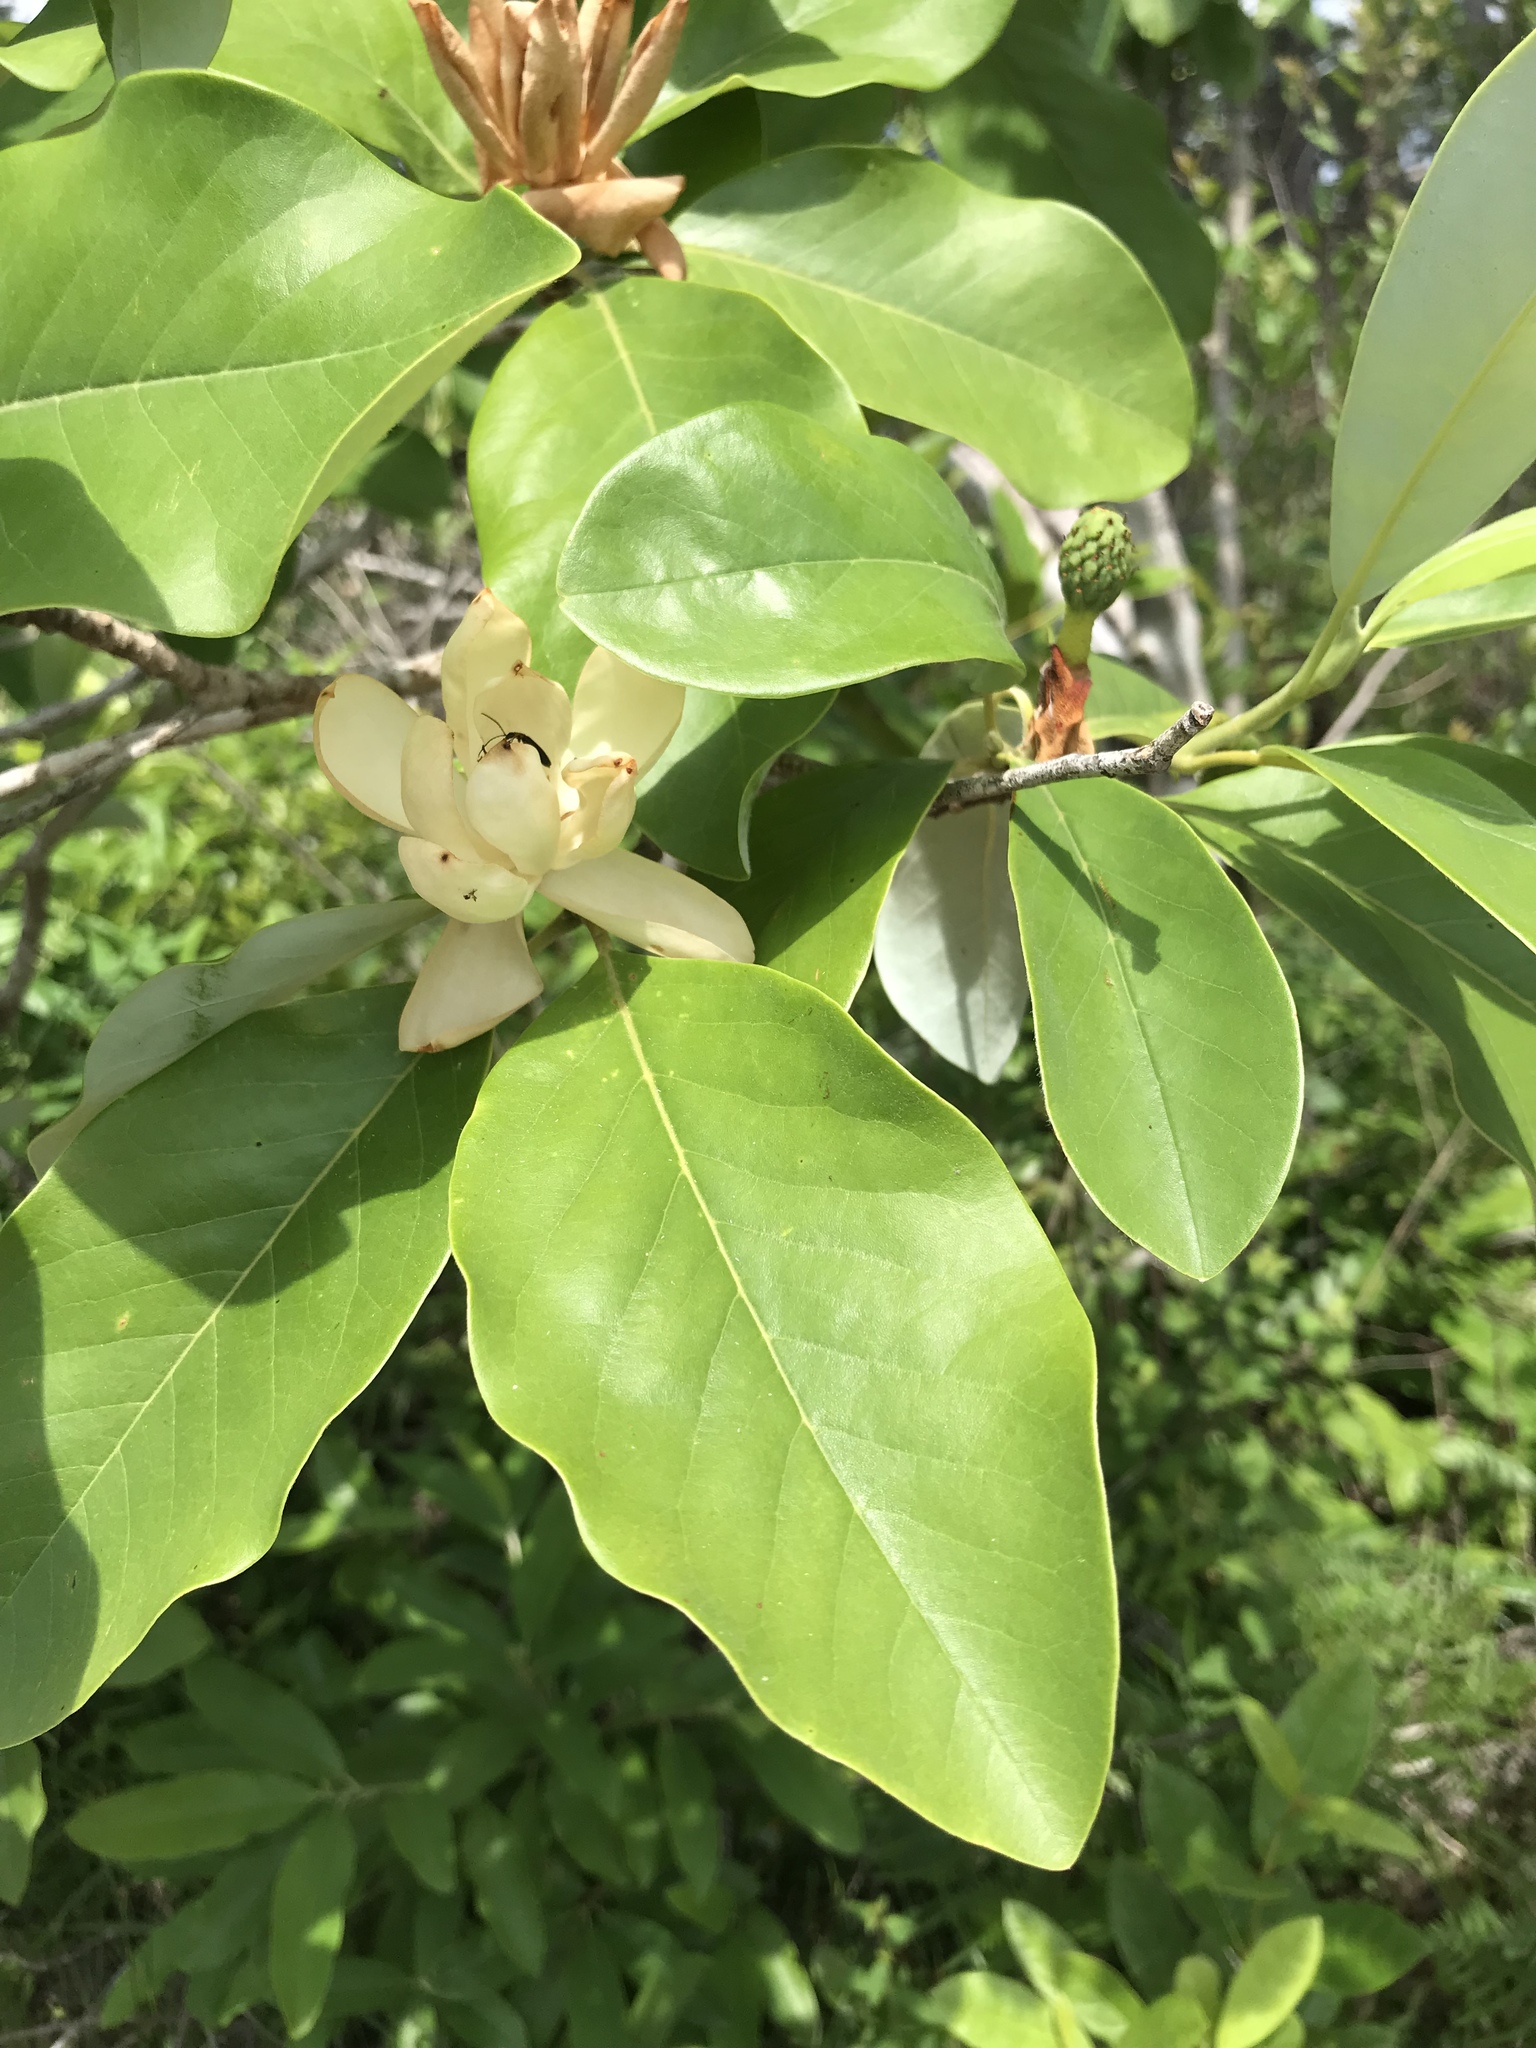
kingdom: Plantae
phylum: Tracheophyta
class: Magnoliopsida
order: Magnoliales
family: Magnoliaceae
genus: Magnolia
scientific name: Magnolia virginiana
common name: Swamp bay
